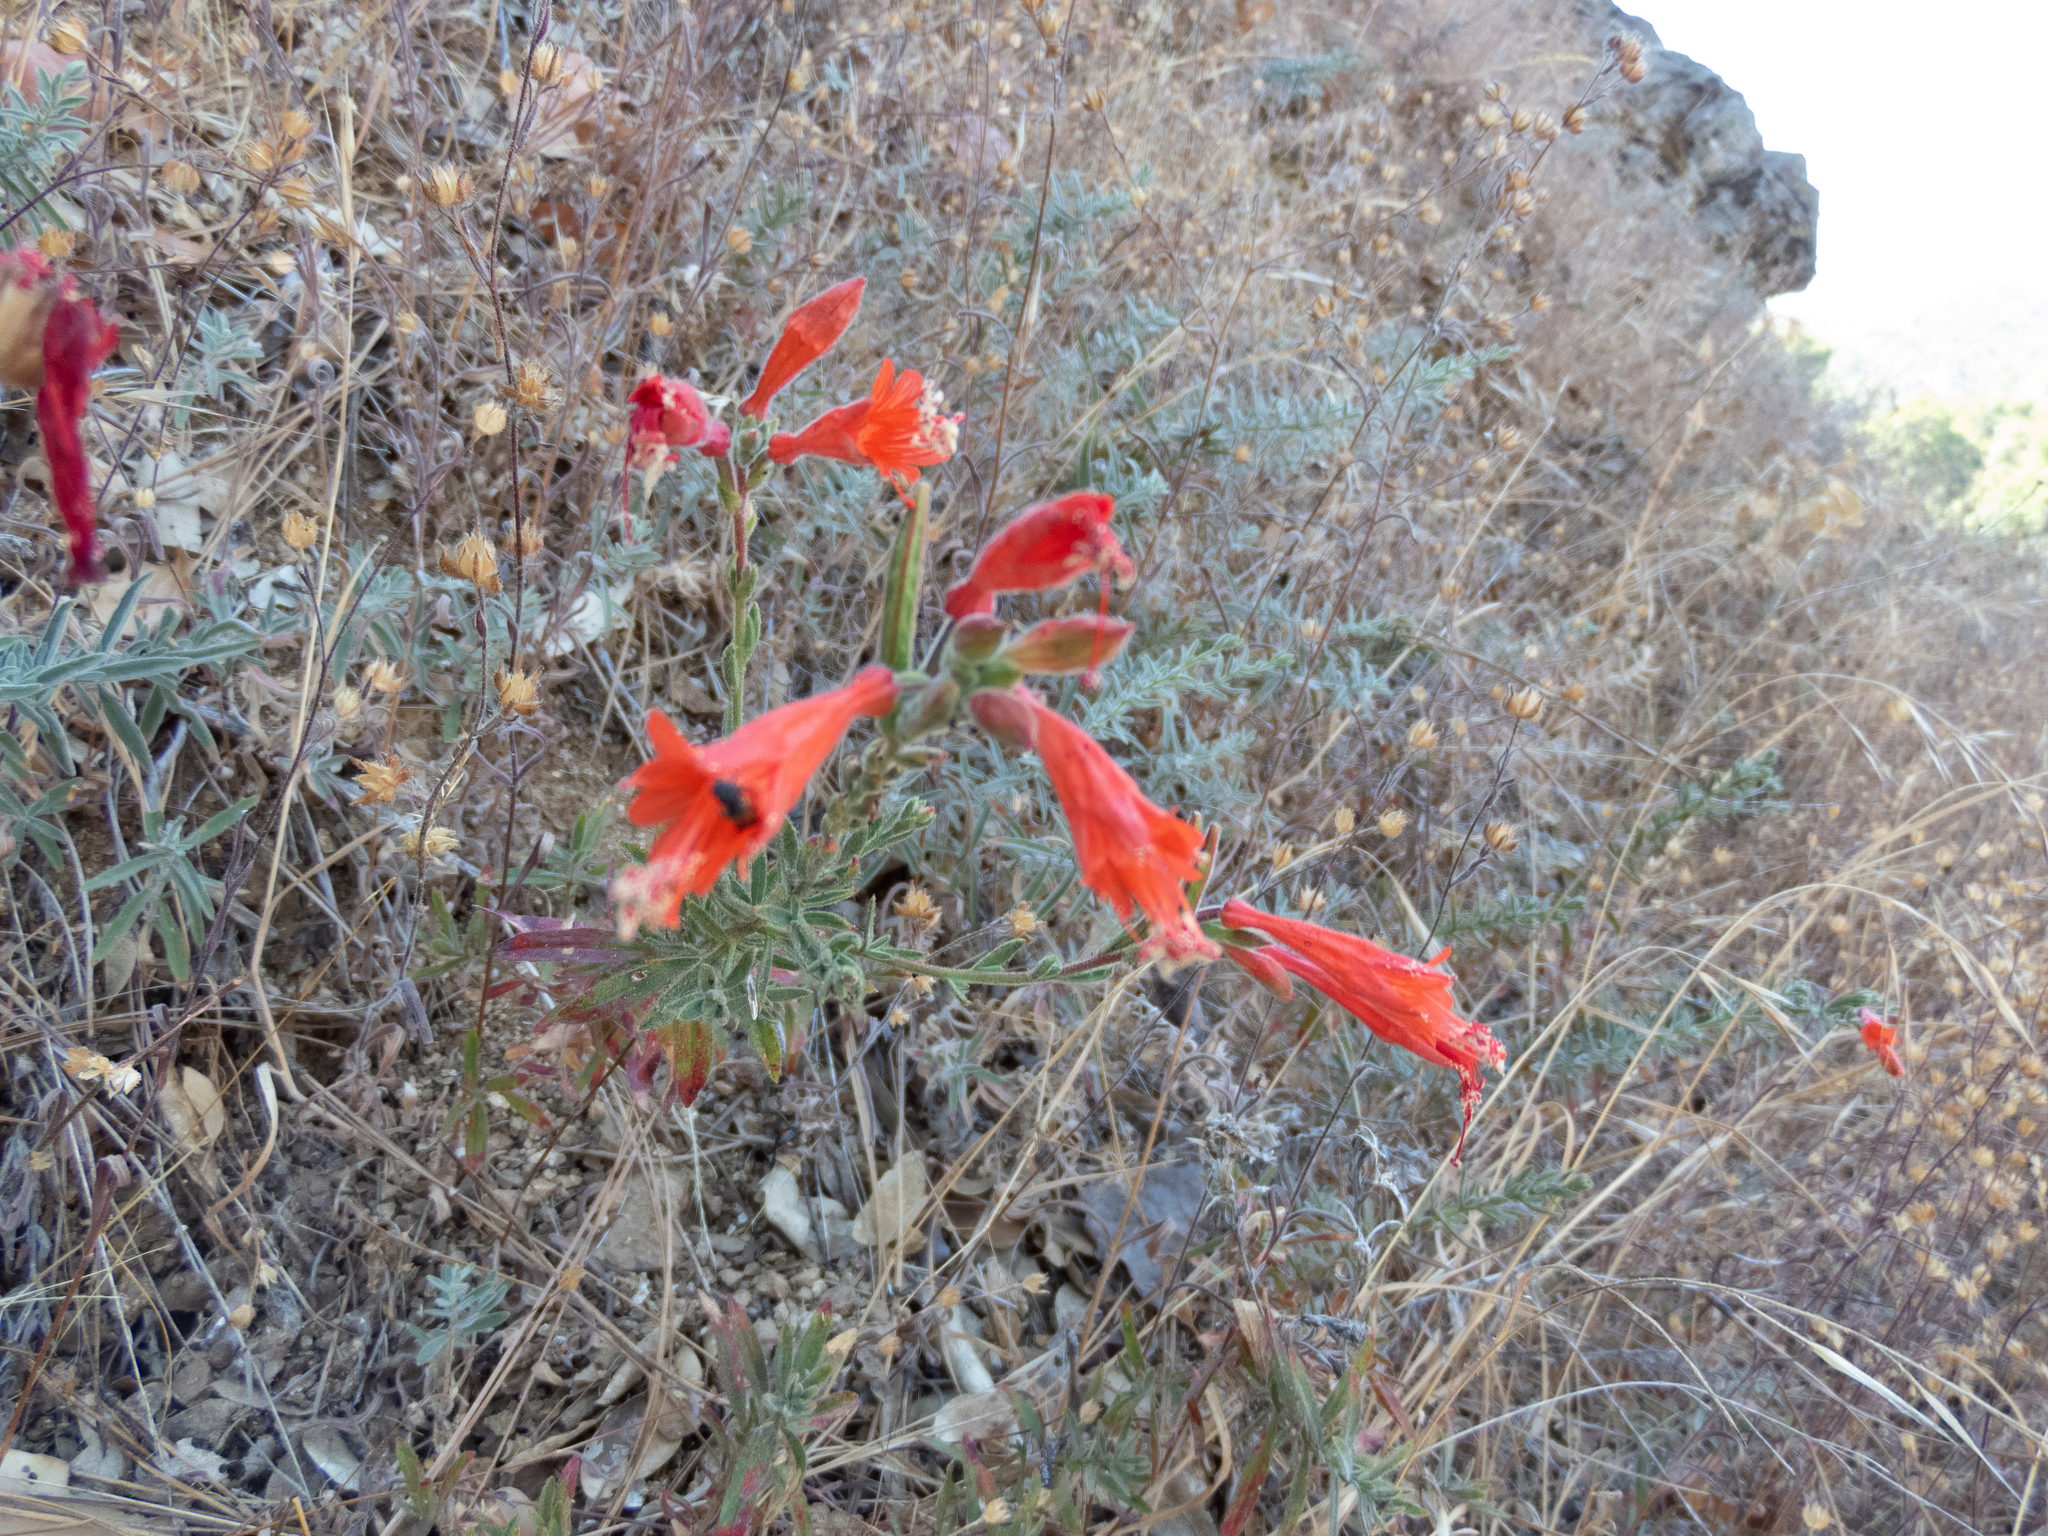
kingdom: Plantae
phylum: Tracheophyta
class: Magnoliopsida
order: Myrtales
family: Onagraceae
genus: Epilobium
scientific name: Epilobium canum
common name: California-fuchsia
